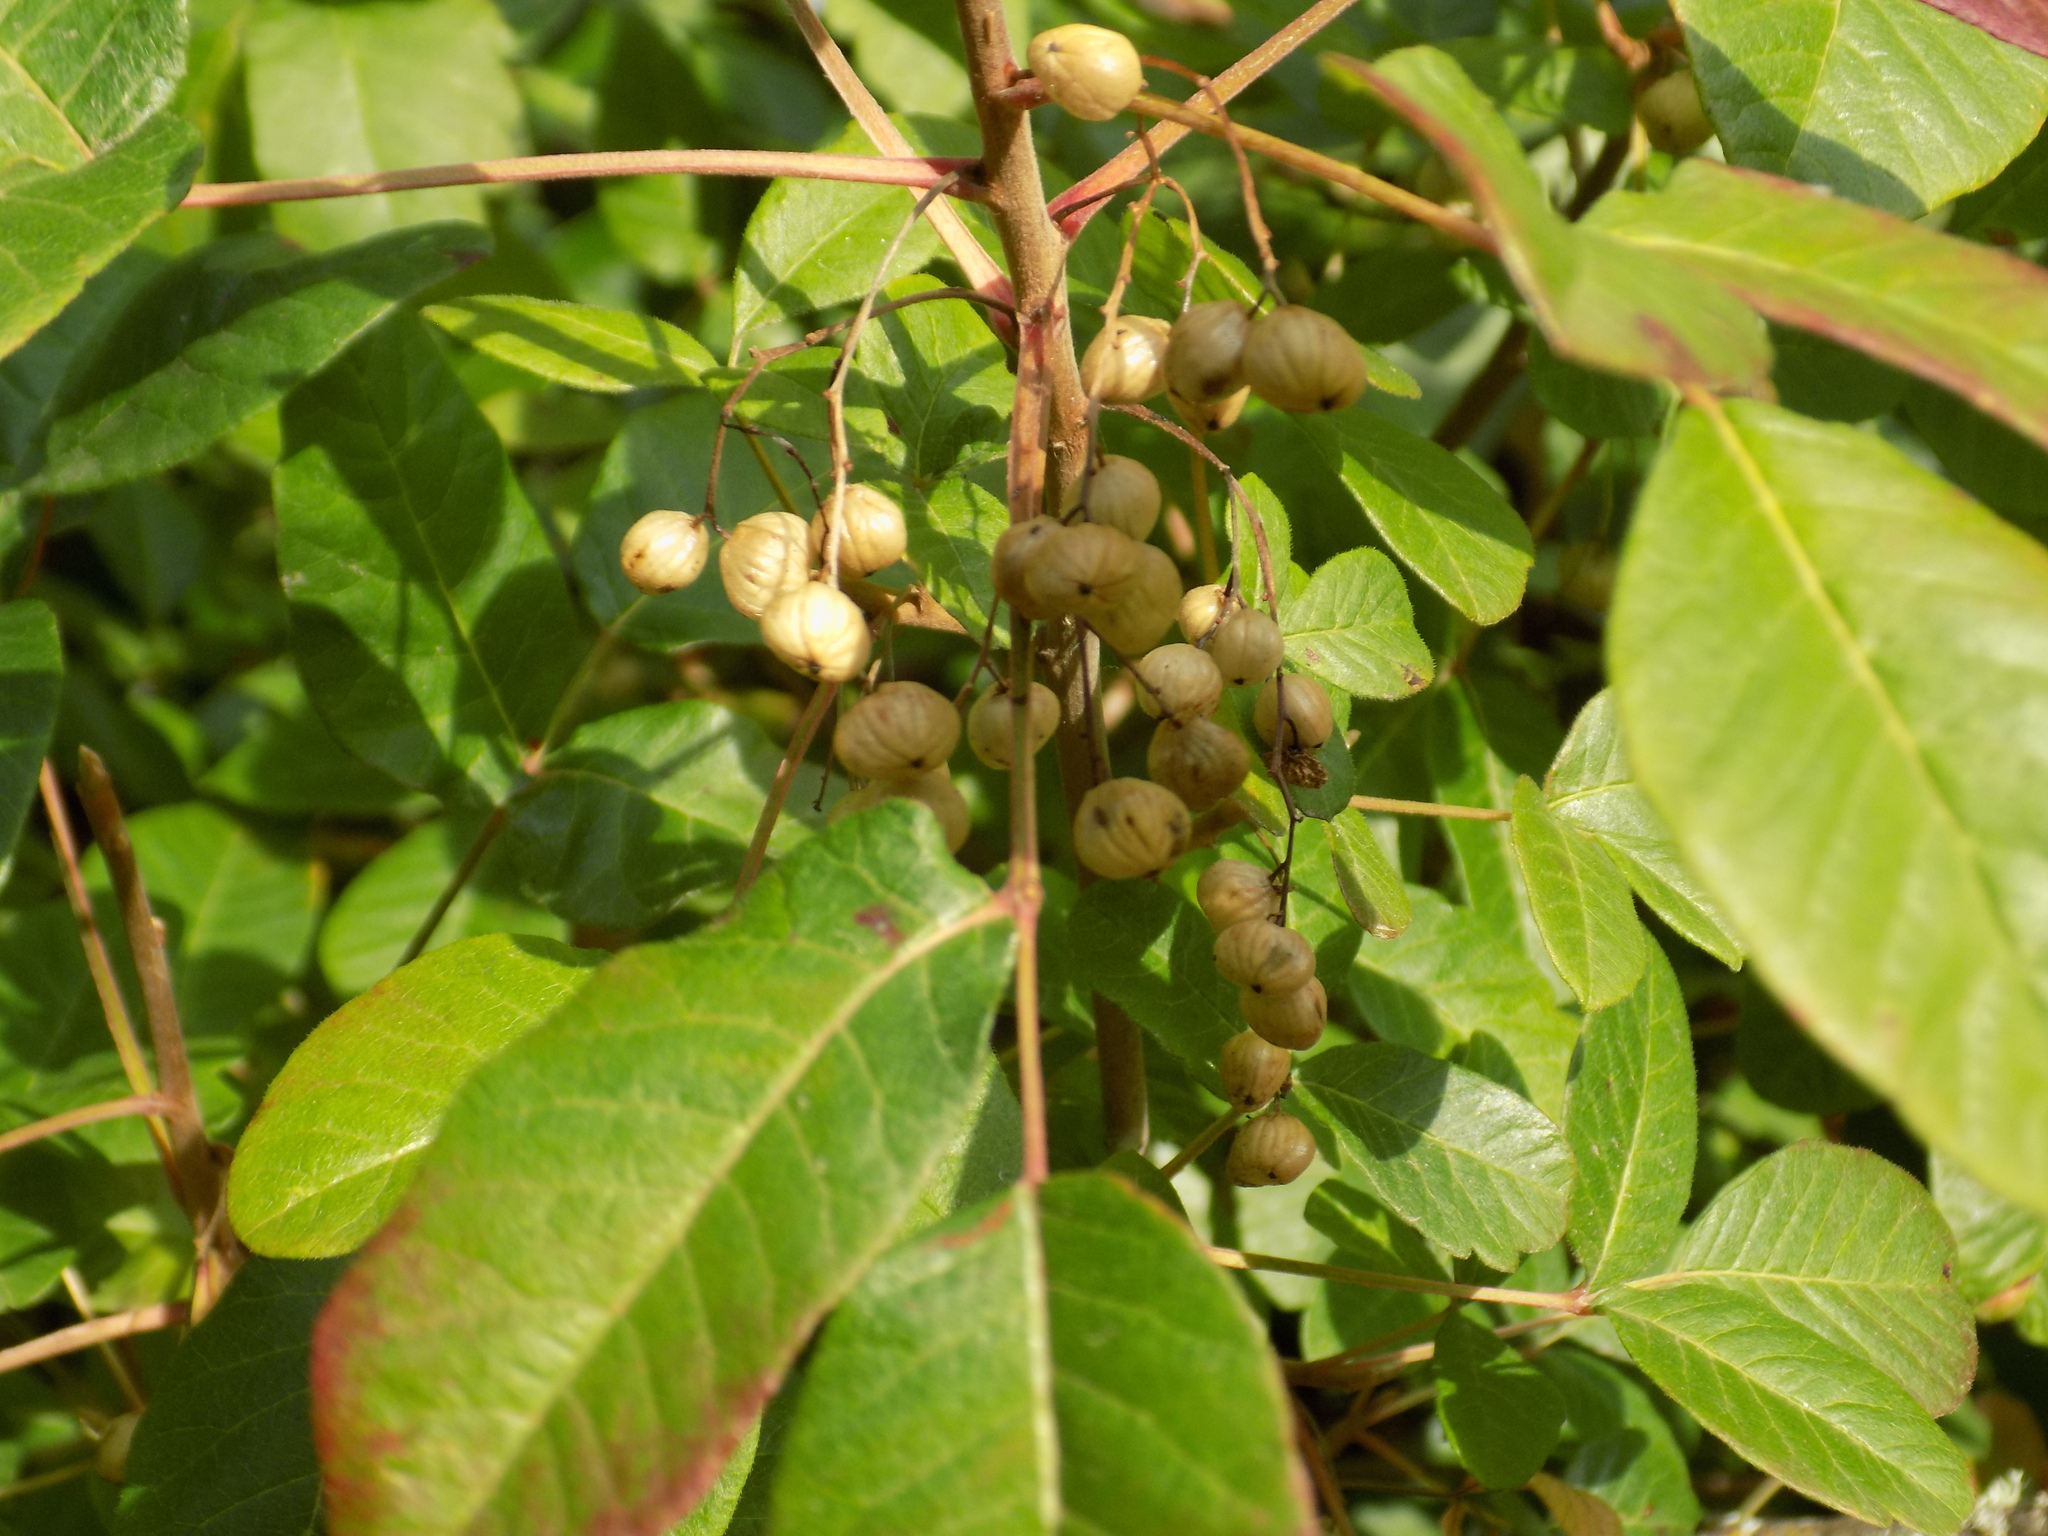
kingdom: Plantae
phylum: Tracheophyta
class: Magnoliopsida
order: Sapindales
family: Anacardiaceae
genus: Toxicodendron
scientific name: Toxicodendron diversilobum
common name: Pacific poison-oak
